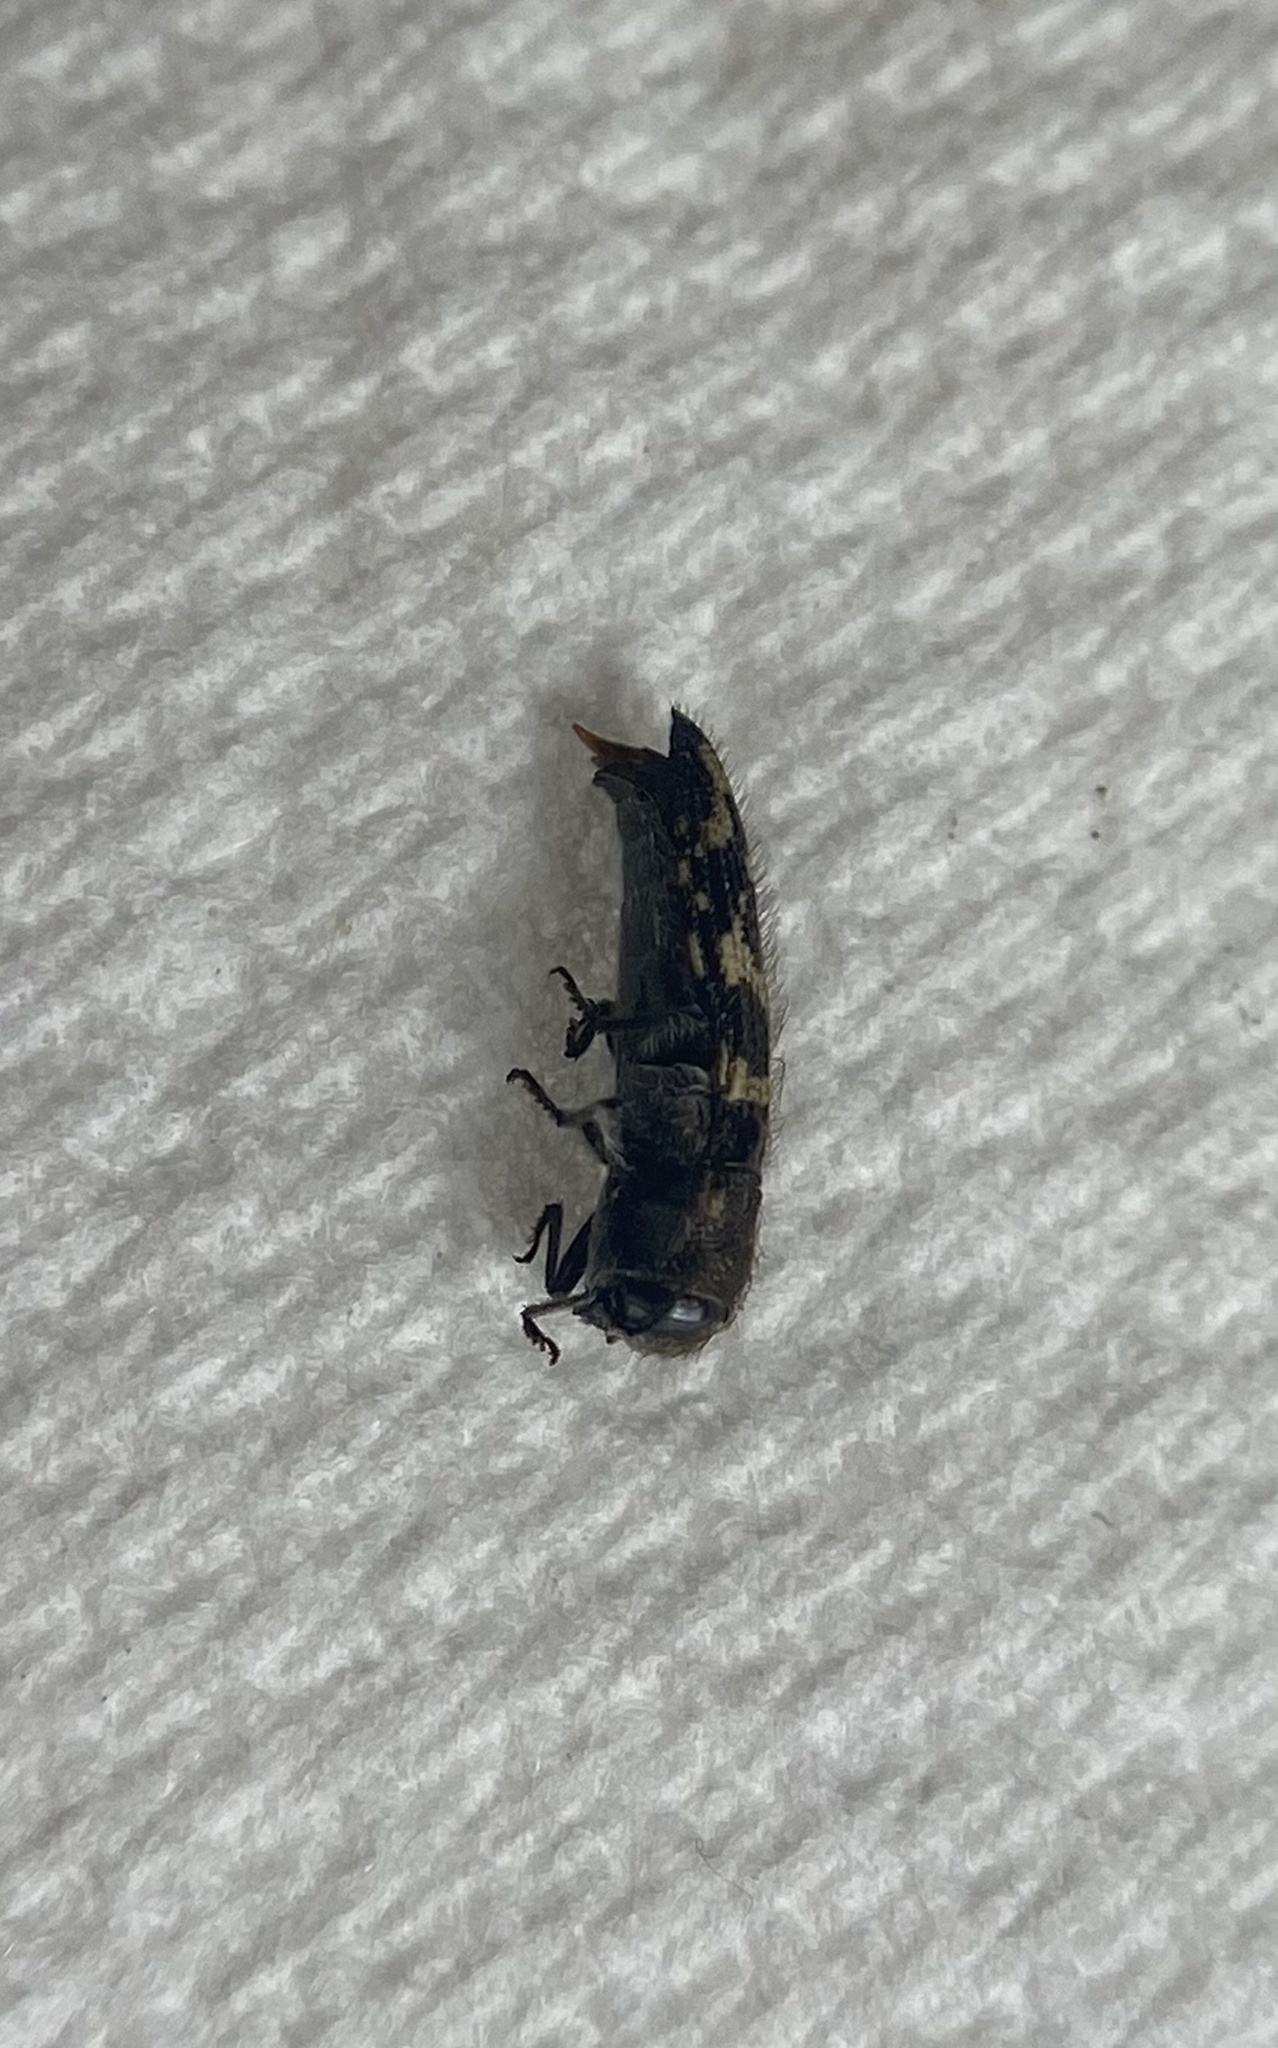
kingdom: Animalia
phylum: Arthropoda
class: Insecta
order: Coleoptera
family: Buprestidae
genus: Acmaeodera
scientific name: Acmaeodera bowditchi
